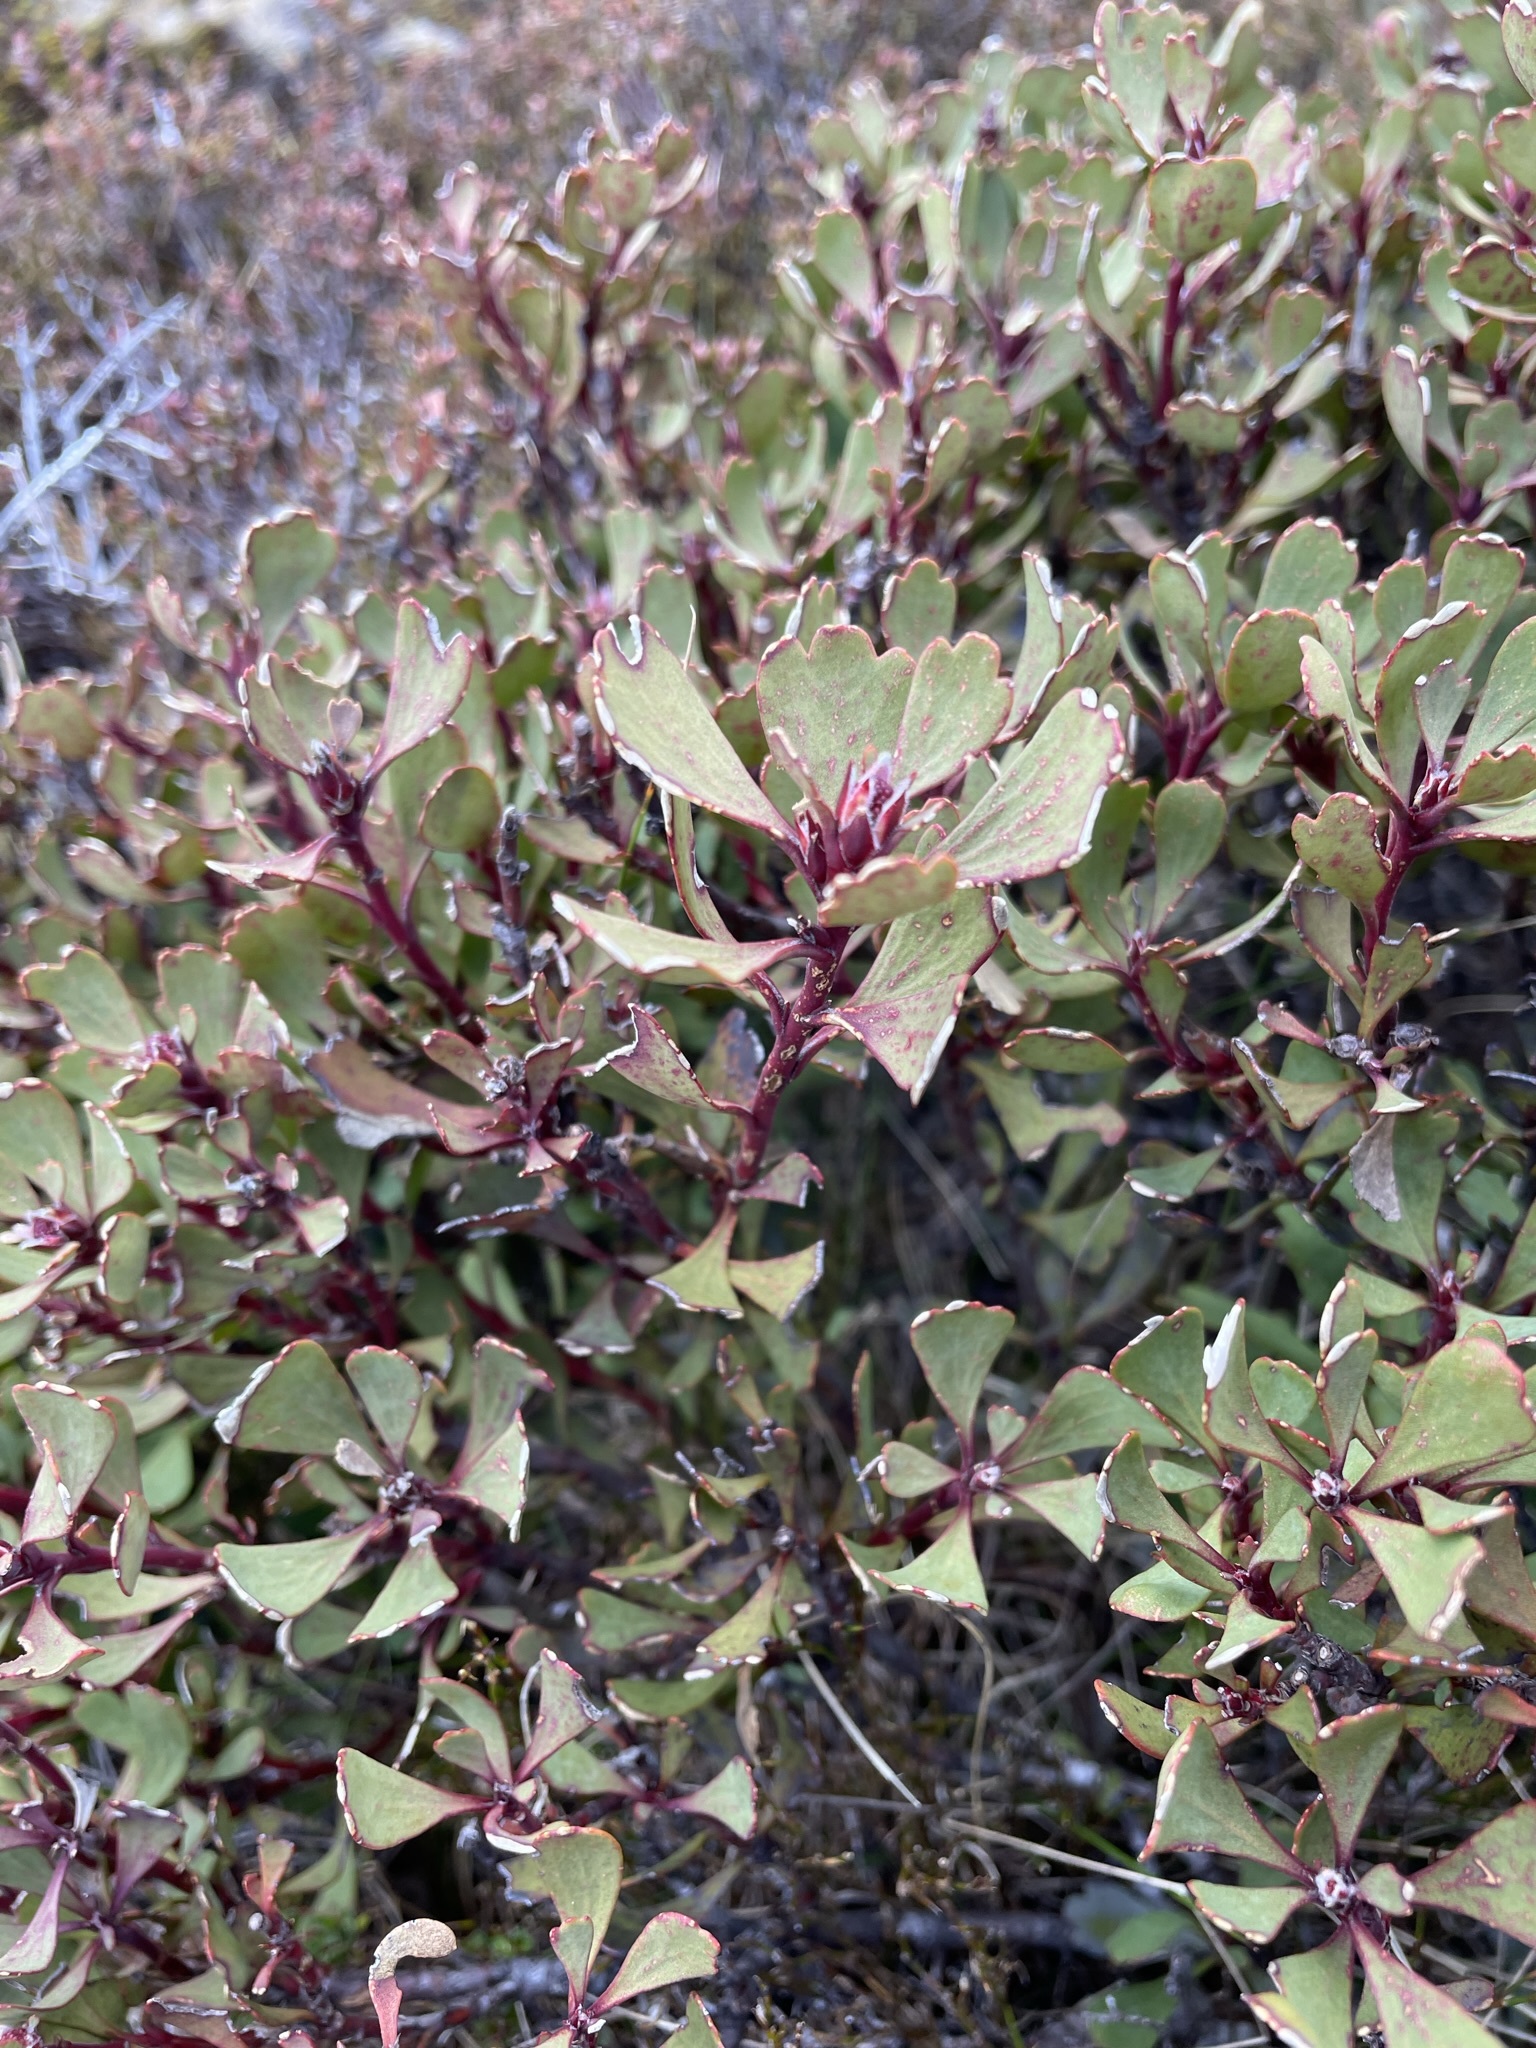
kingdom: Plantae
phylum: Tracheophyta
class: Magnoliopsida
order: Proteales
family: Proteaceae
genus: Bellendena
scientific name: Bellendena montana
